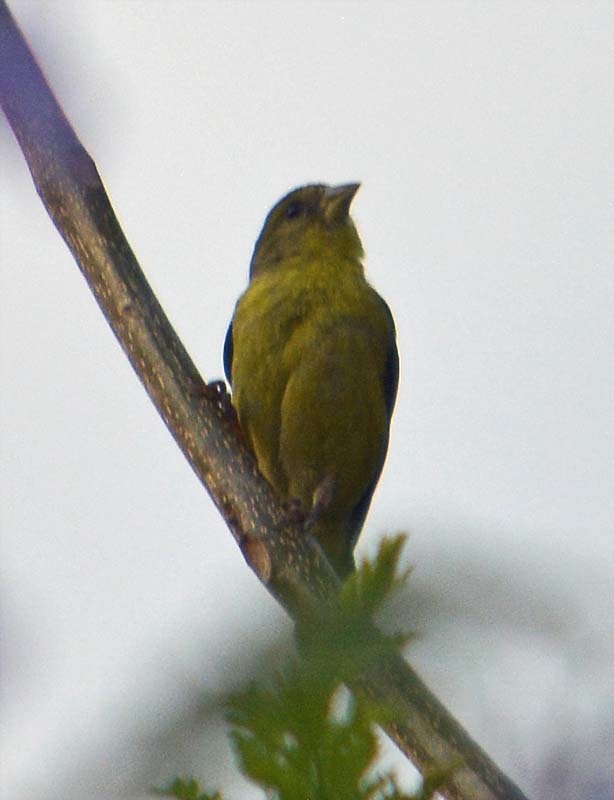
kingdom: Animalia
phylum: Chordata
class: Aves
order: Passeriformes
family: Fringillidae
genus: Spinus
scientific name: Spinus psaltria
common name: Lesser goldfinch
